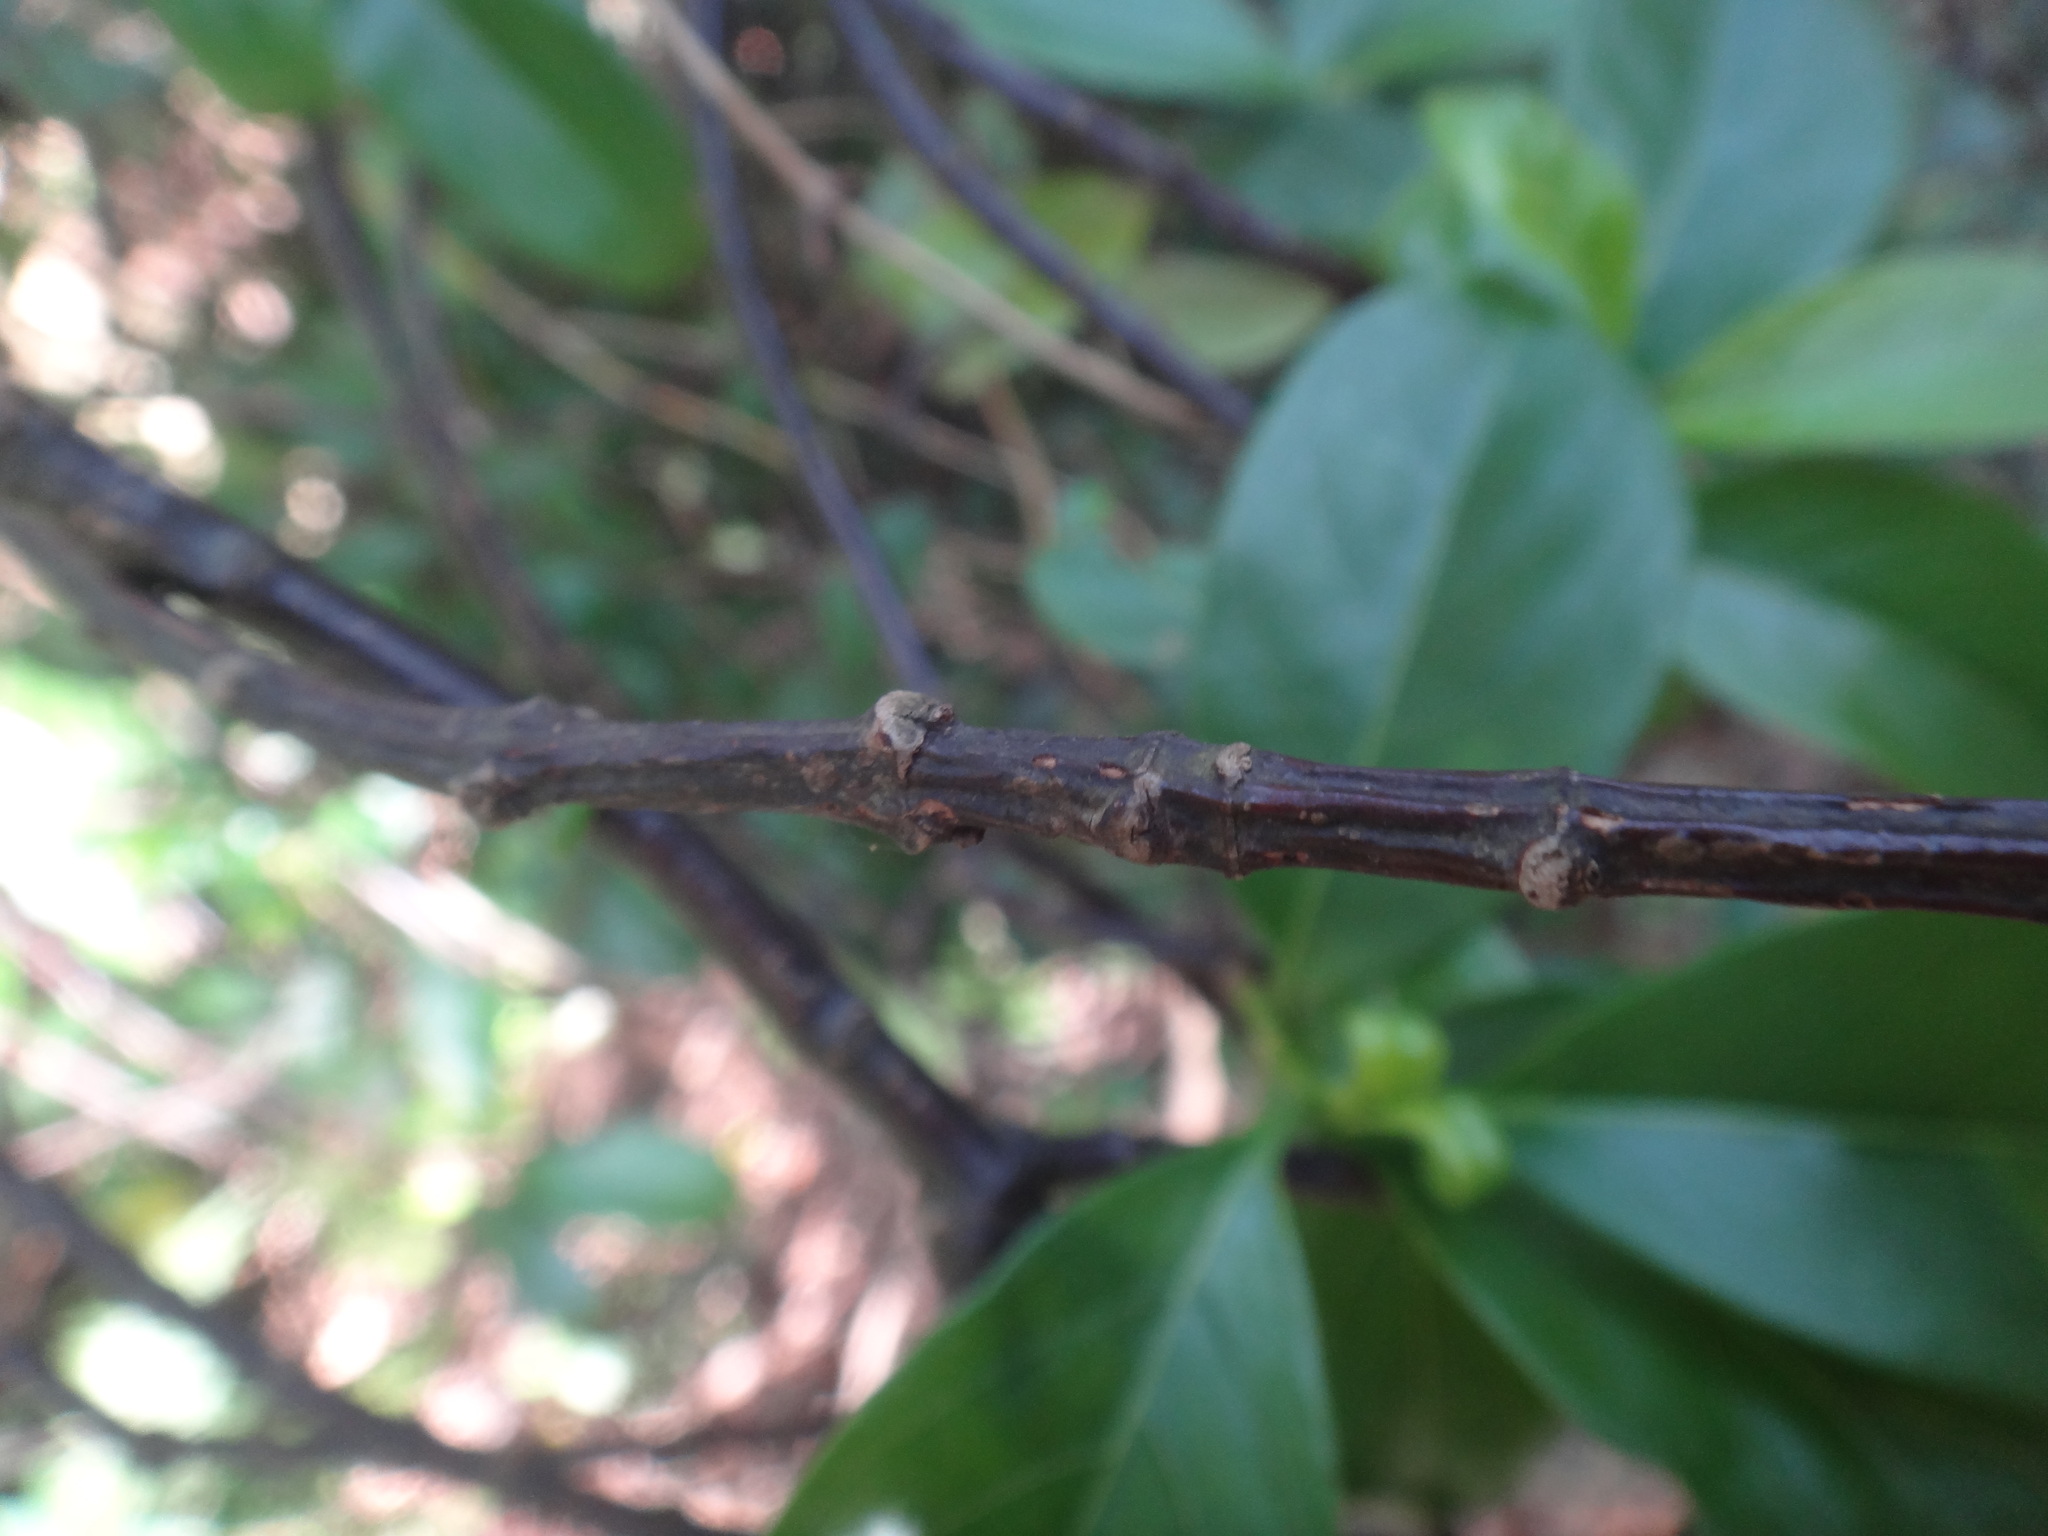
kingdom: Plantae
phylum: Tracheophyta
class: Magnoliopsida
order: Gentianales
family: Rubiaceae
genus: Gynochthodes
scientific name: Gynochthodes umbellata
